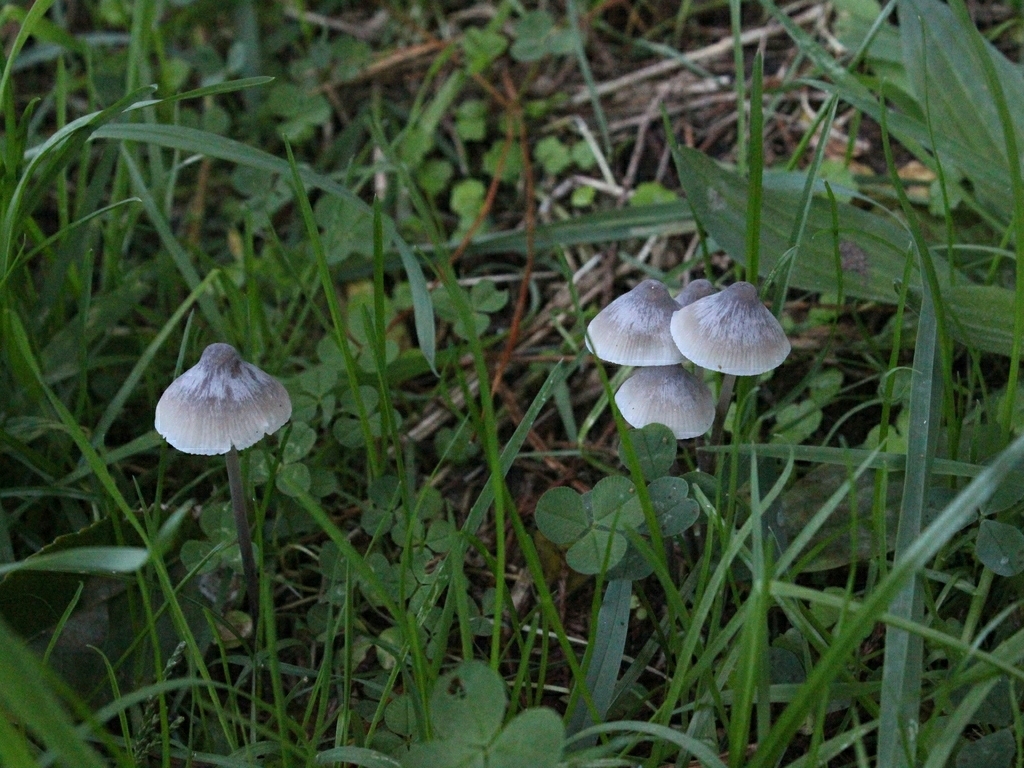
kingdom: Plantae
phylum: Tracheophyta
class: Magnoliopsida
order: Fabales
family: Fabaceae
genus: Trifolium
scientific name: Trifolium repens
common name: White clover
